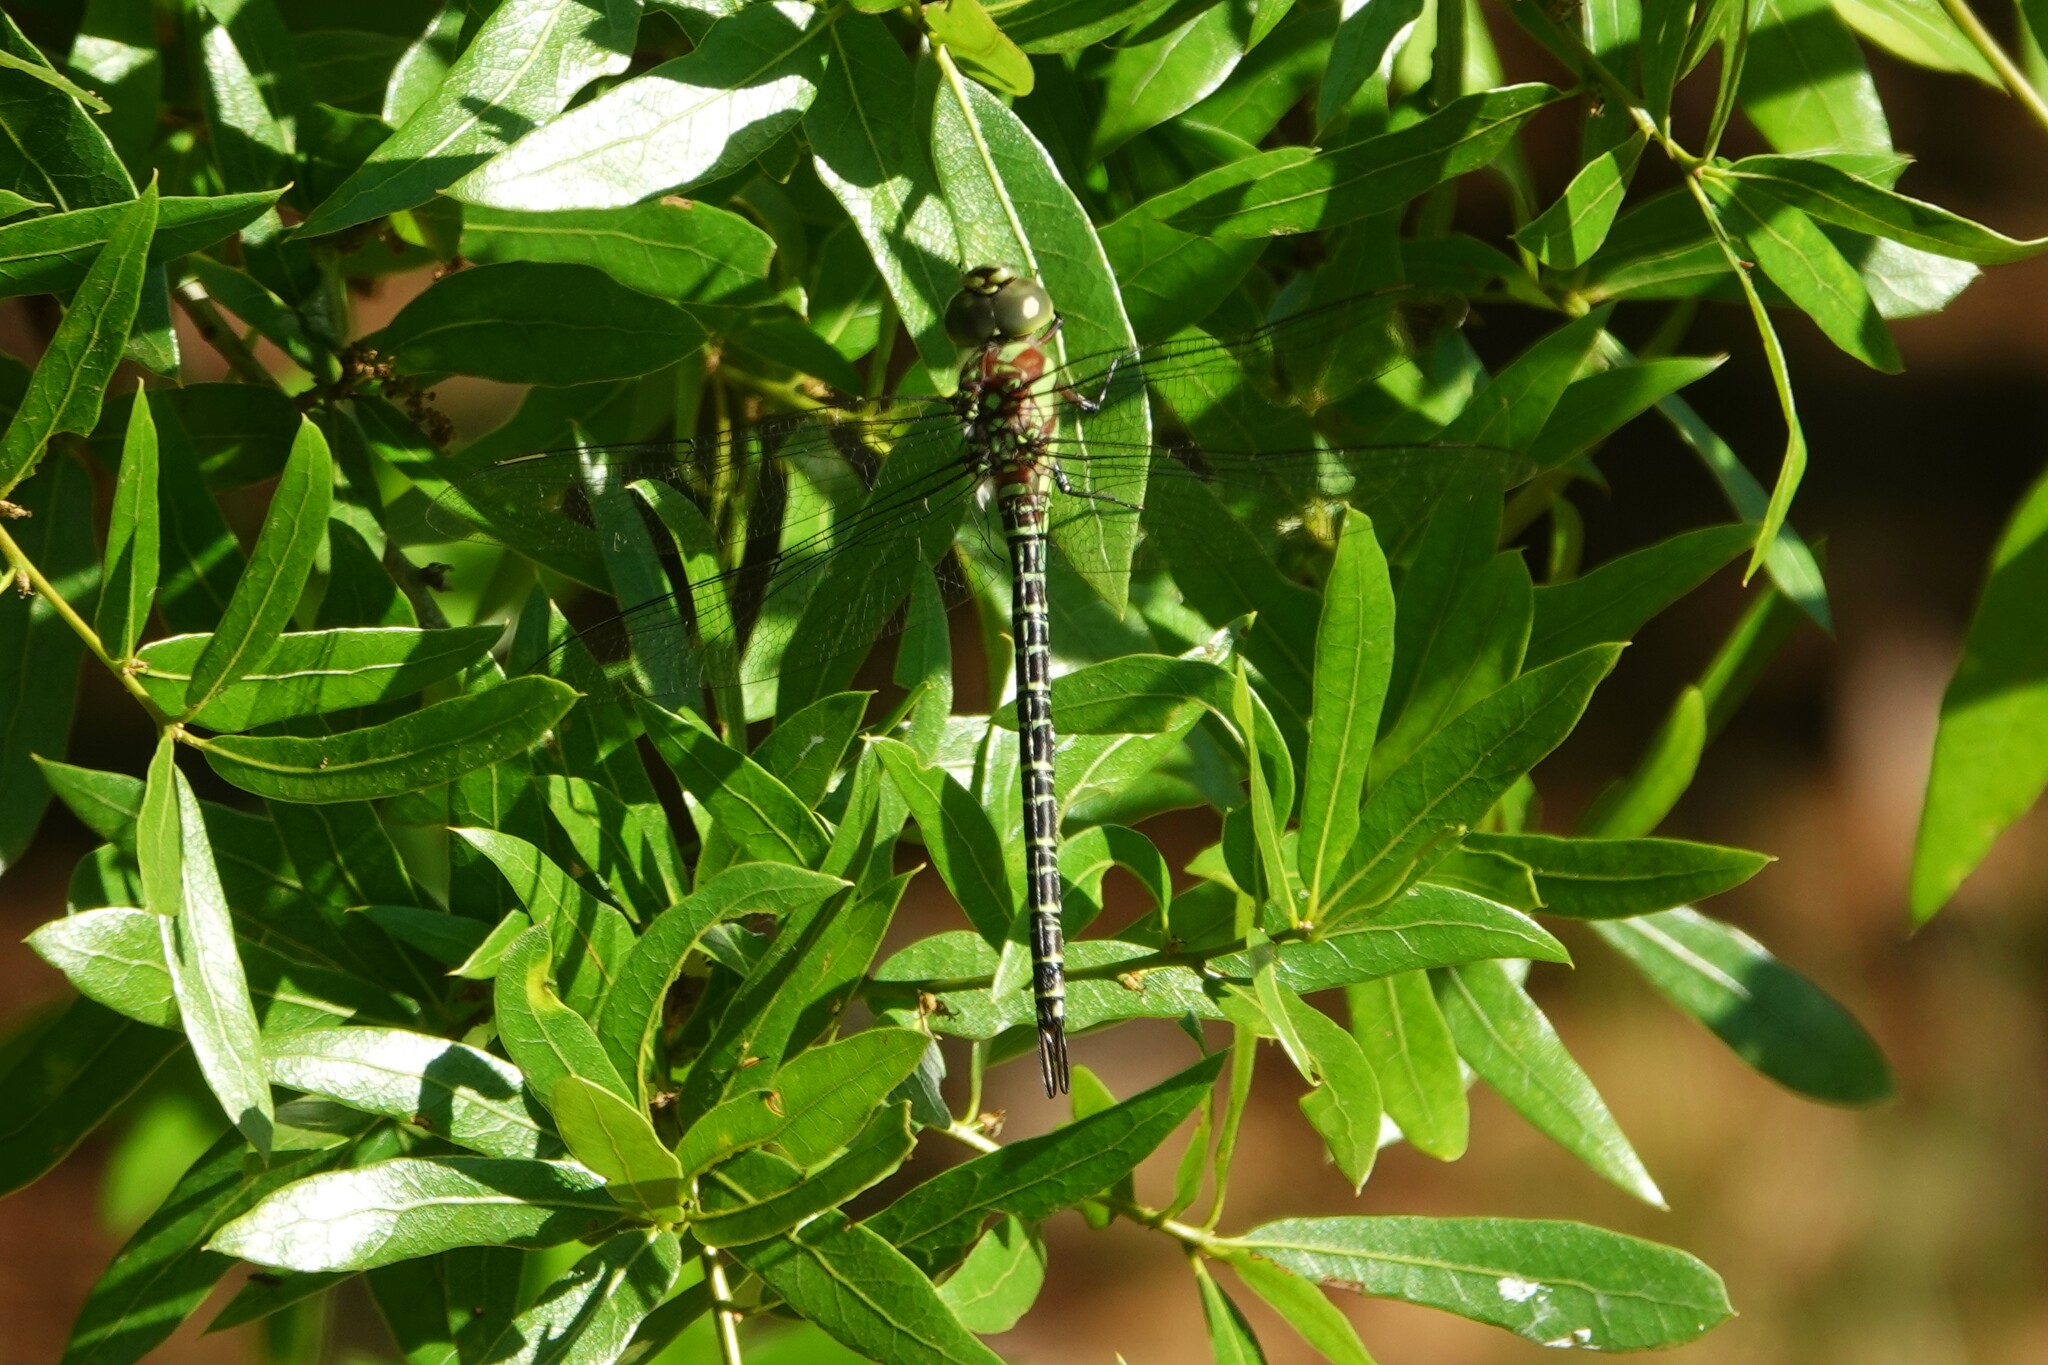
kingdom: Animalia
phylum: Arthropoda
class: Insecta
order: Odonata
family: Aeshnidae
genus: Coryphaeschna
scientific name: Coryphaeschna ingens
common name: Regal darner
